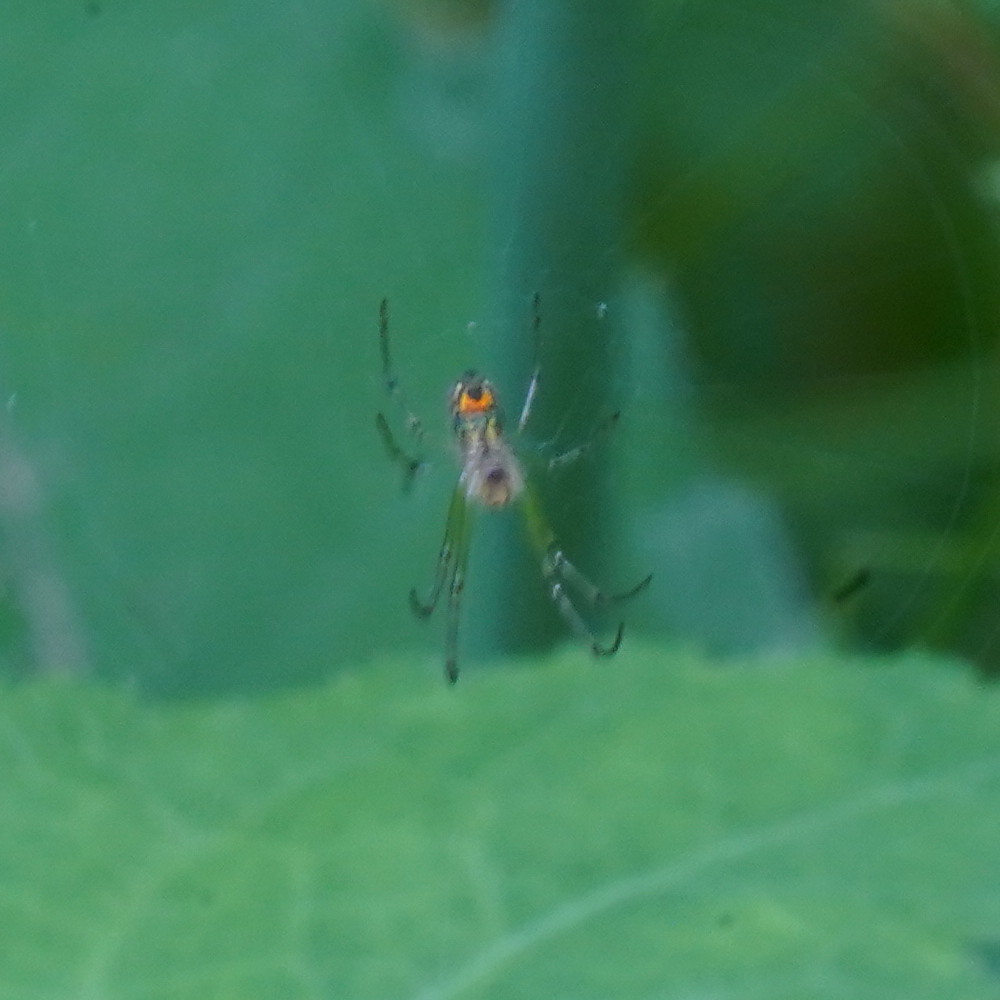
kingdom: Animalia
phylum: Arthropoda
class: Arachnida
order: Araneae
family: Tetragnathidae
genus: Leucauge
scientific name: Leucauge venusta
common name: Longjawed orb weavers
